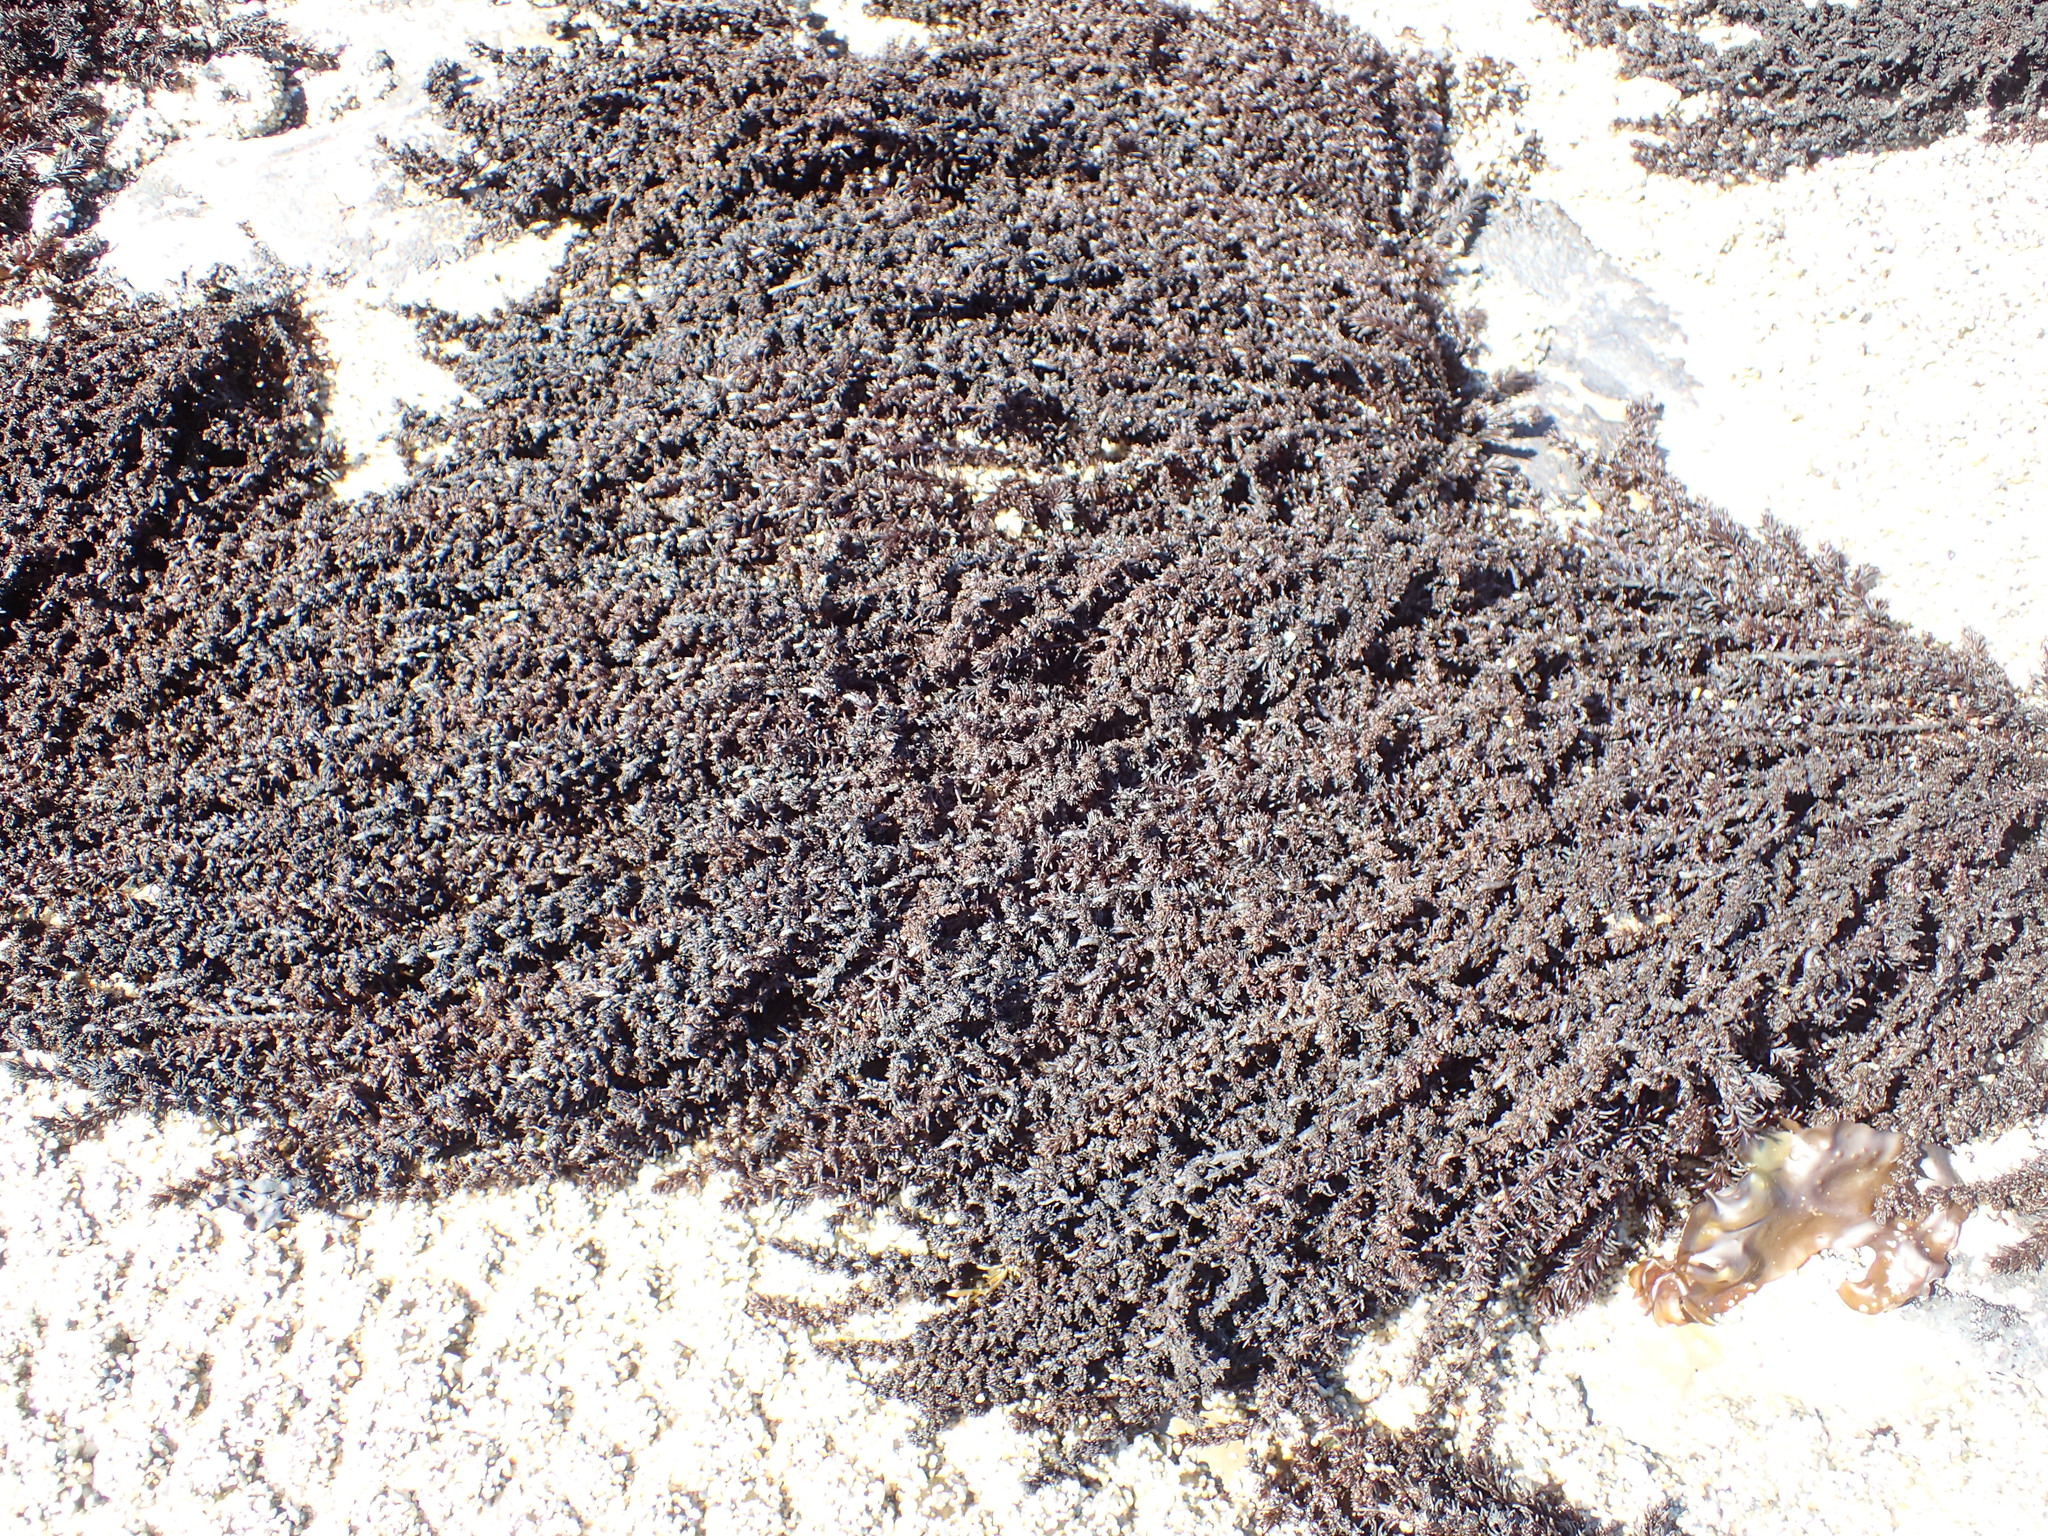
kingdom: Plantae
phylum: Rhodophyta
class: Florideophyceae
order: Ceramiales
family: Rhodomelaceae
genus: Neorhodomela
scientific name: Neorhodomela larix
